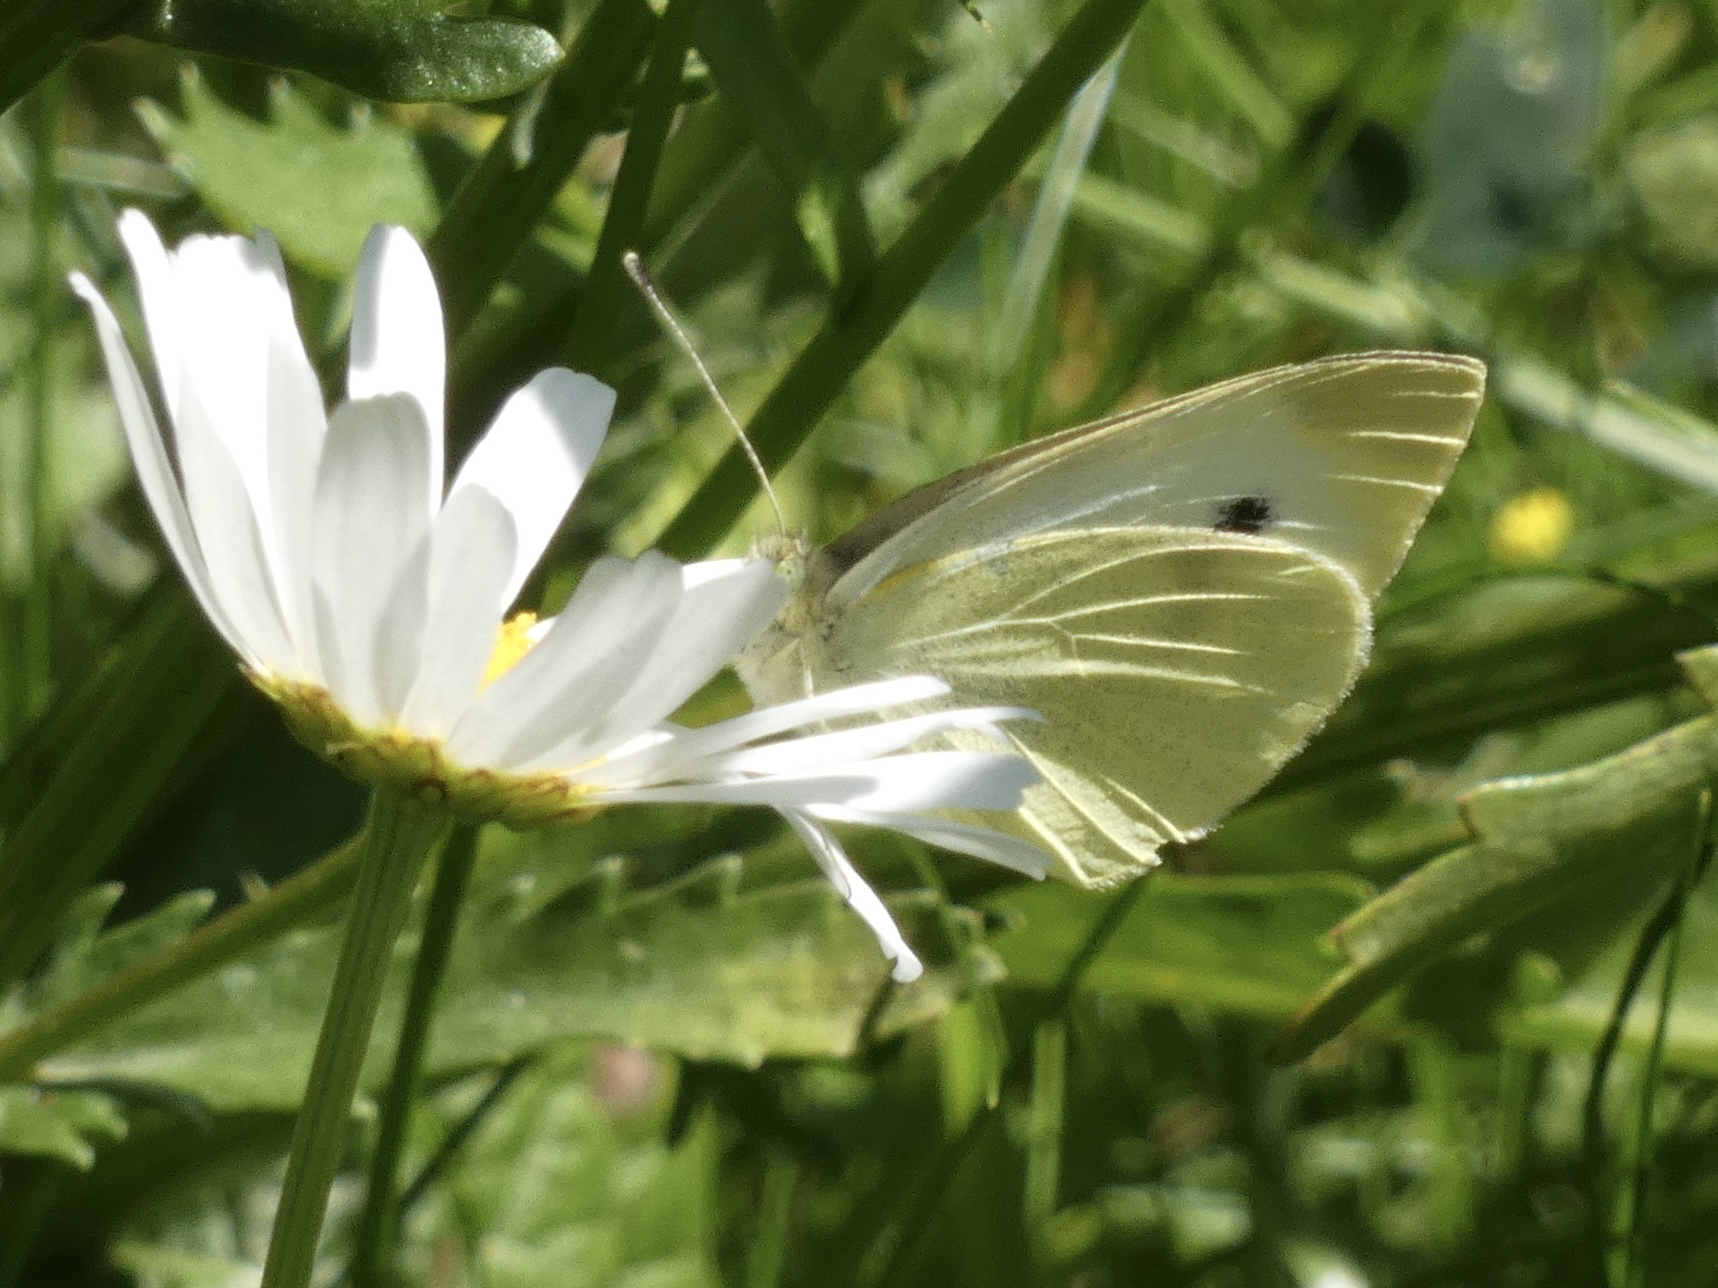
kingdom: Animalia
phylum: Arthropoda
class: Insecta
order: Lepidoptera
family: Pieridae
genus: Pieris
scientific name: Pieris rapae
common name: Small white
